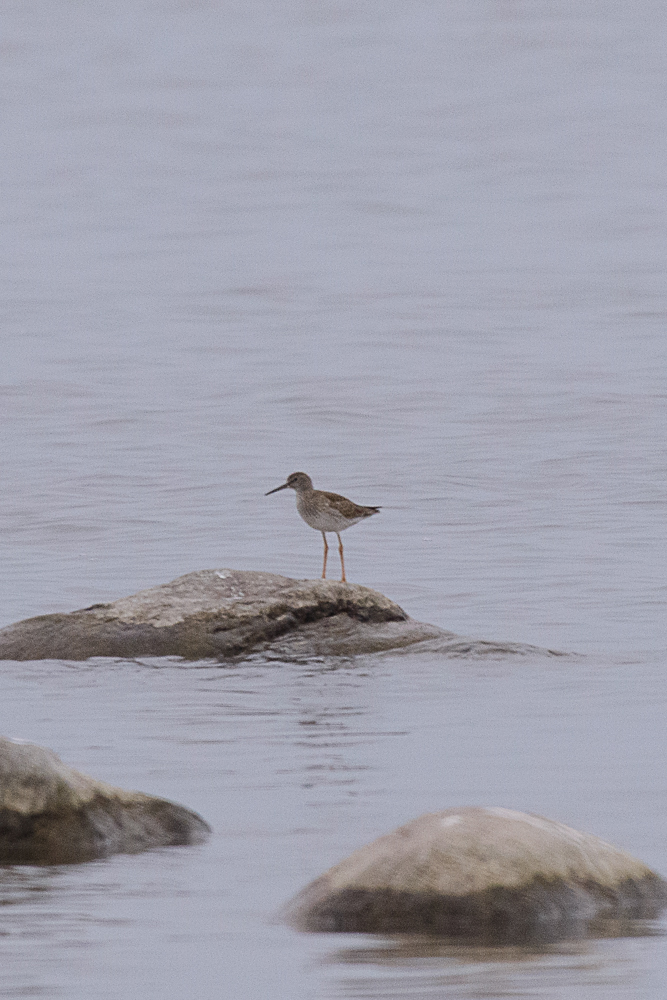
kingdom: Animalia
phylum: Chordata
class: Aves
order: Charadriiformes
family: Scolopacidae
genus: Tringa
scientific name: Tringa totanus
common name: Common redshank
